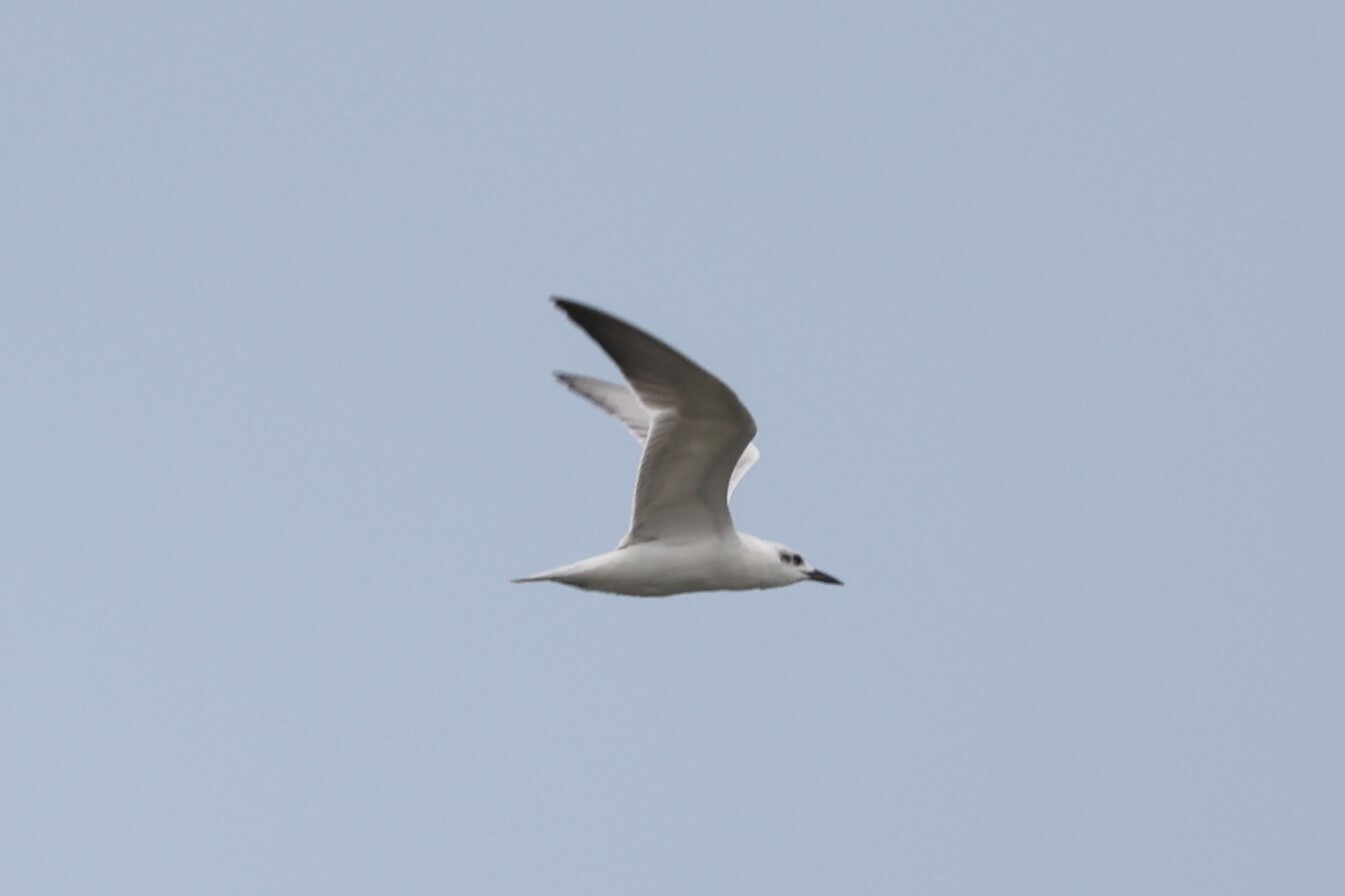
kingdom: Animalia
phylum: Chordata
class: Aves
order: Charadriiformes
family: Laridae
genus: Gelochelidon
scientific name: Gelochelidon nilotica
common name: Gull-billed tern
